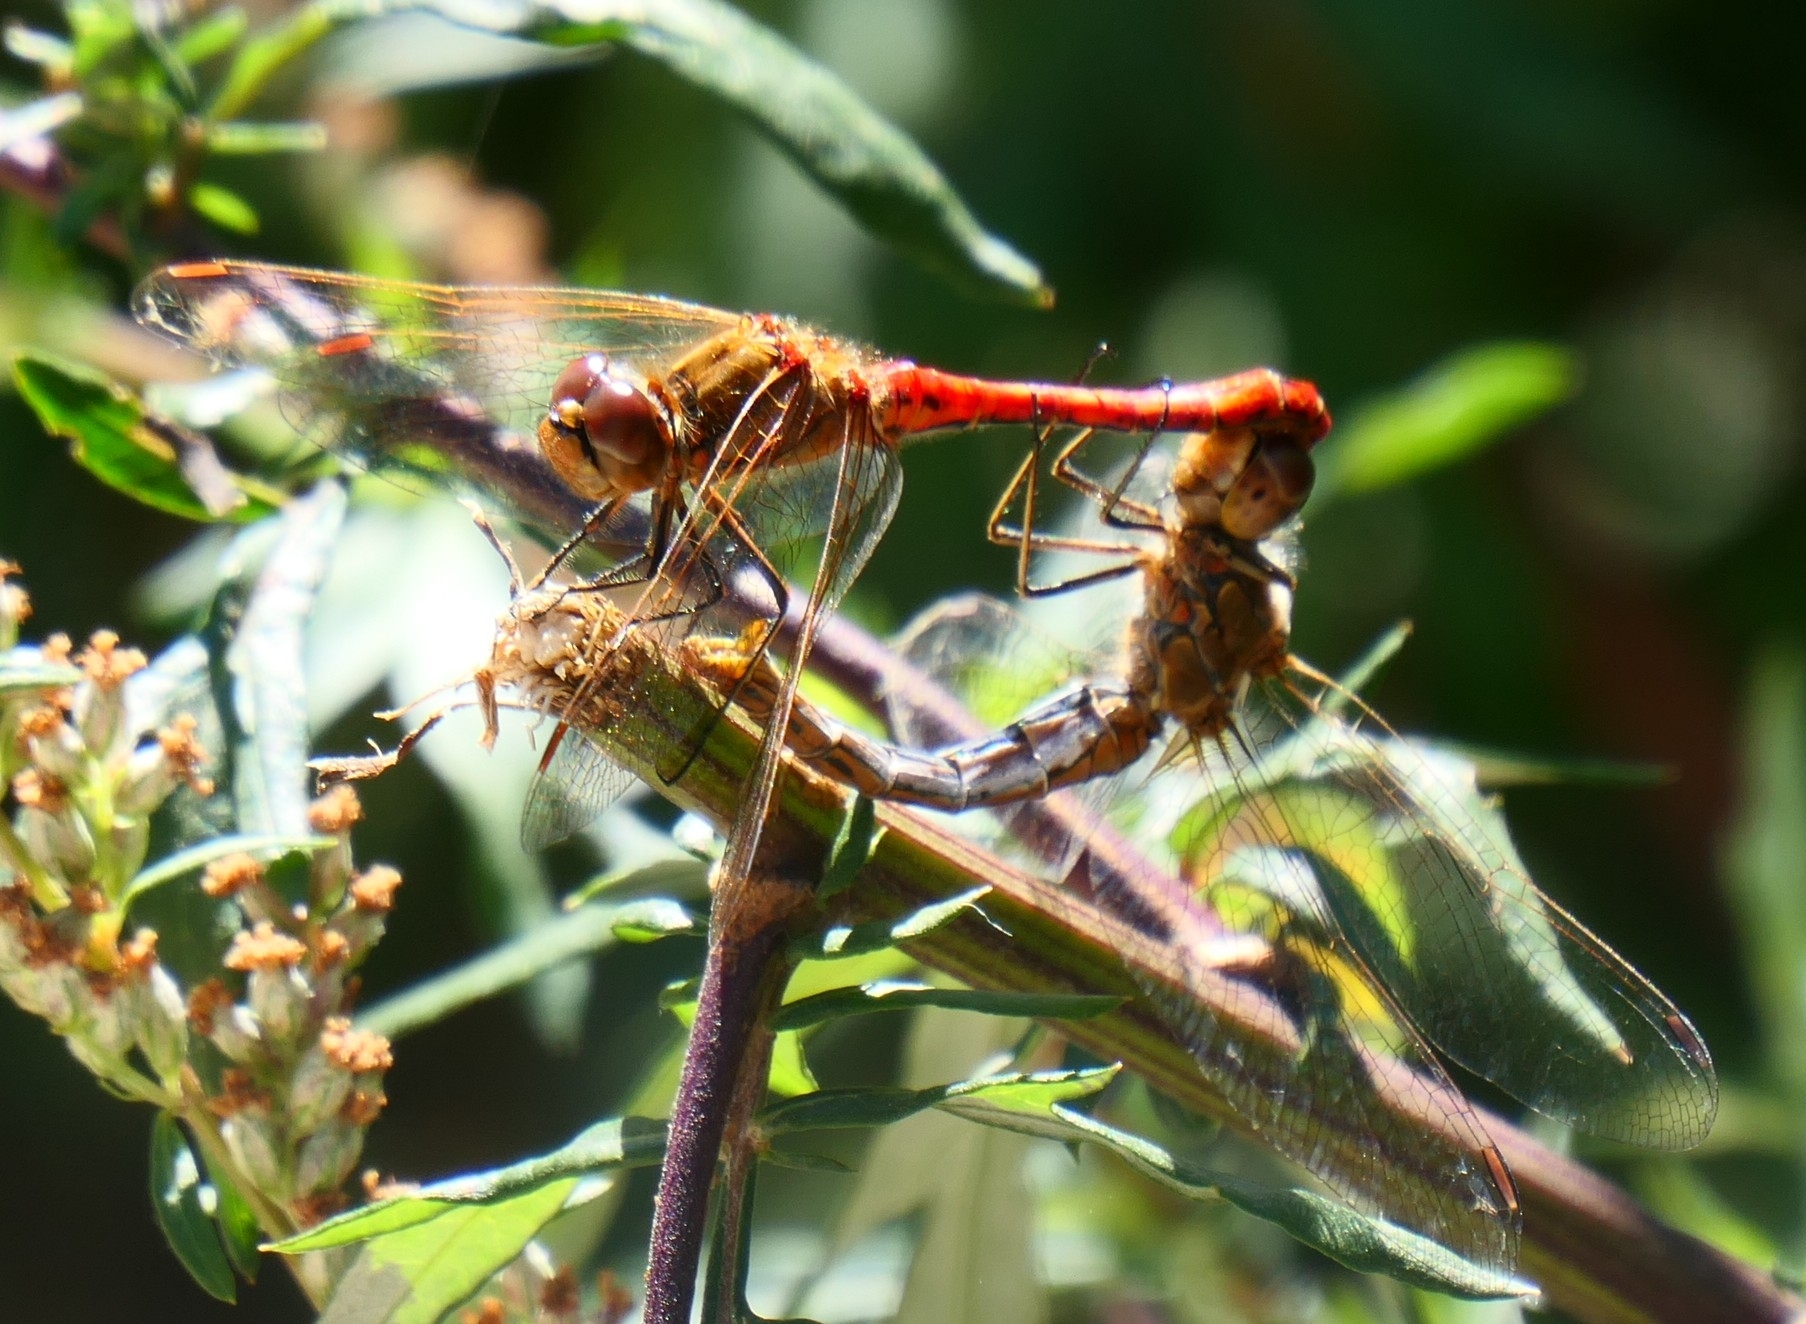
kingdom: Animalia
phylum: Arthropoda
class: Insecta
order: Odonata
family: Libellulidae
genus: Sympetrum
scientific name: Sympetrum vulgatum
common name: Vagrant darter
